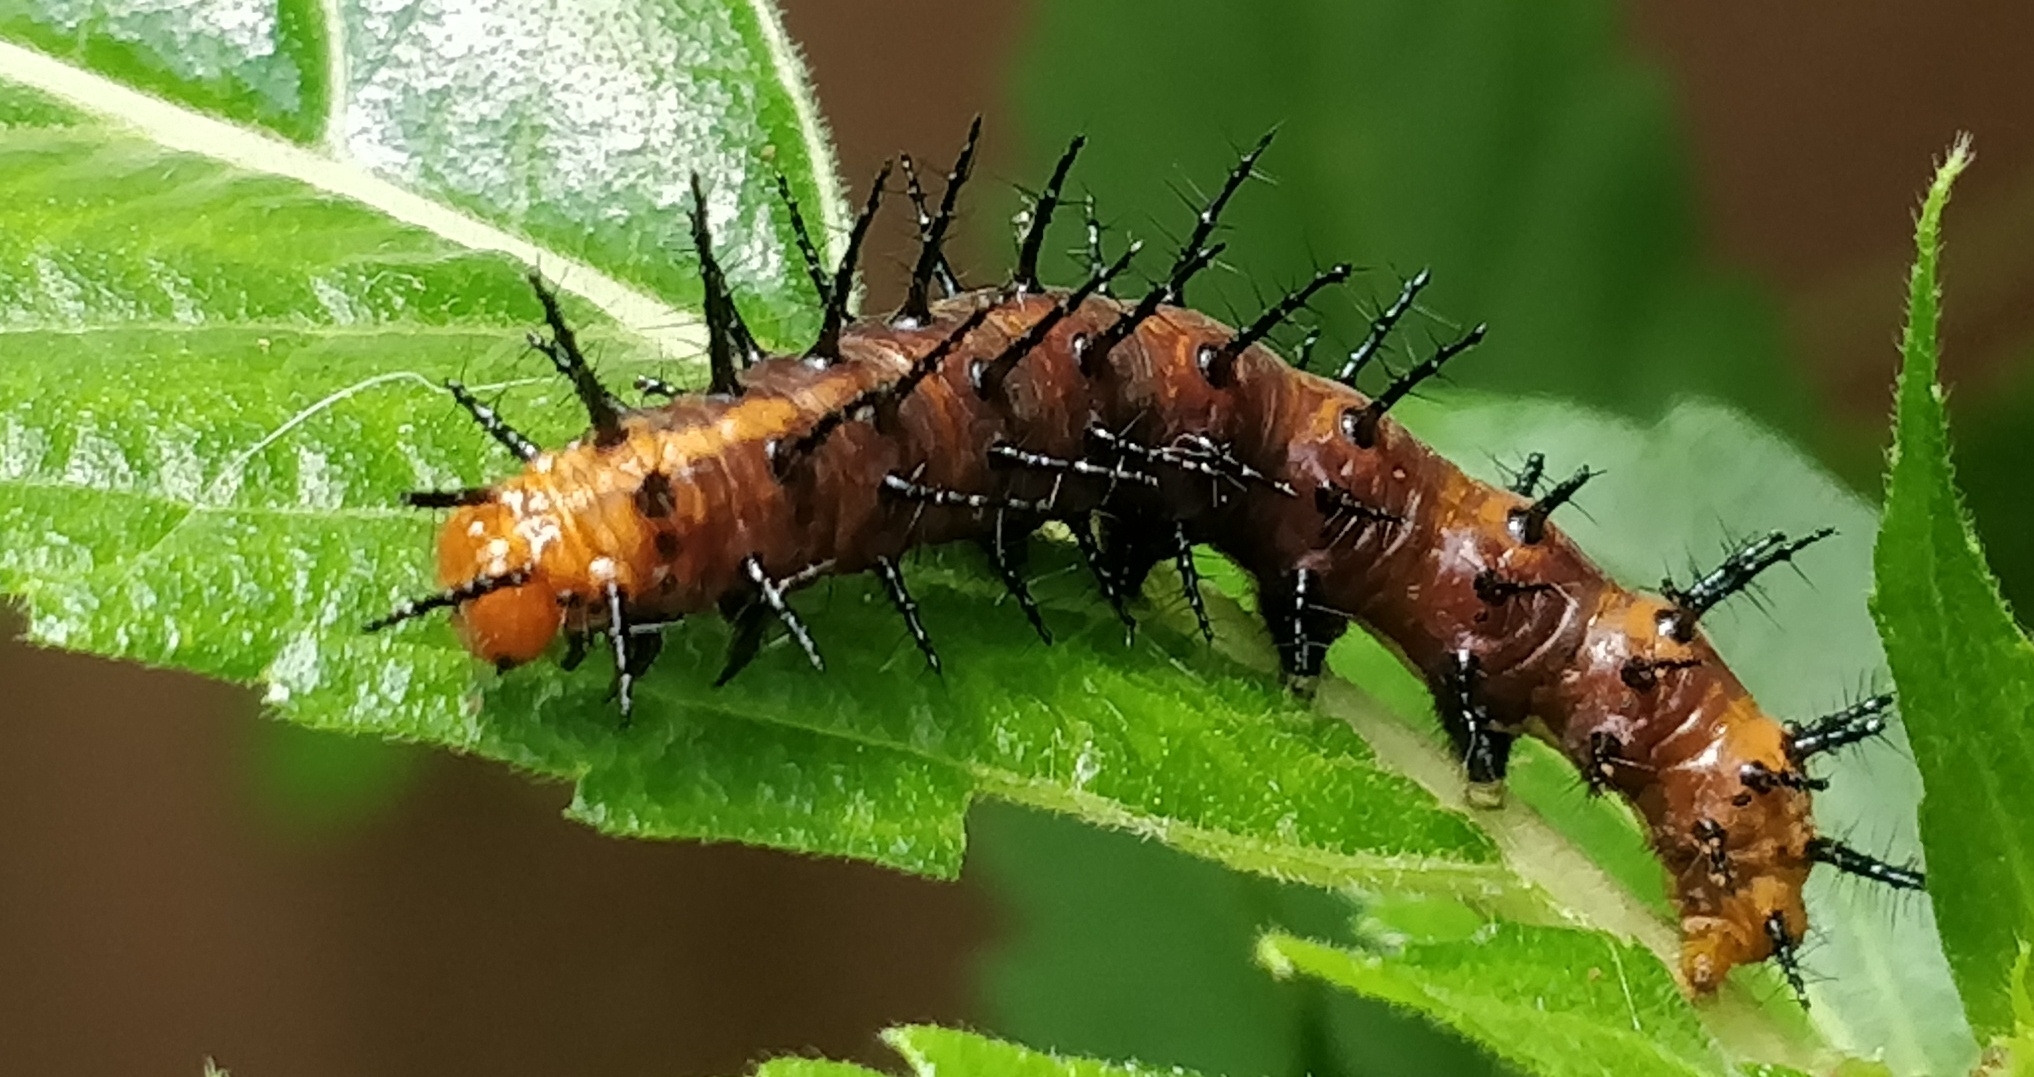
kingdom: Animalia
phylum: Arthropoda
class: Insecta
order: Lepidoptera
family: Nymphalidae
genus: Acraea
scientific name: Acraea terpsicore
